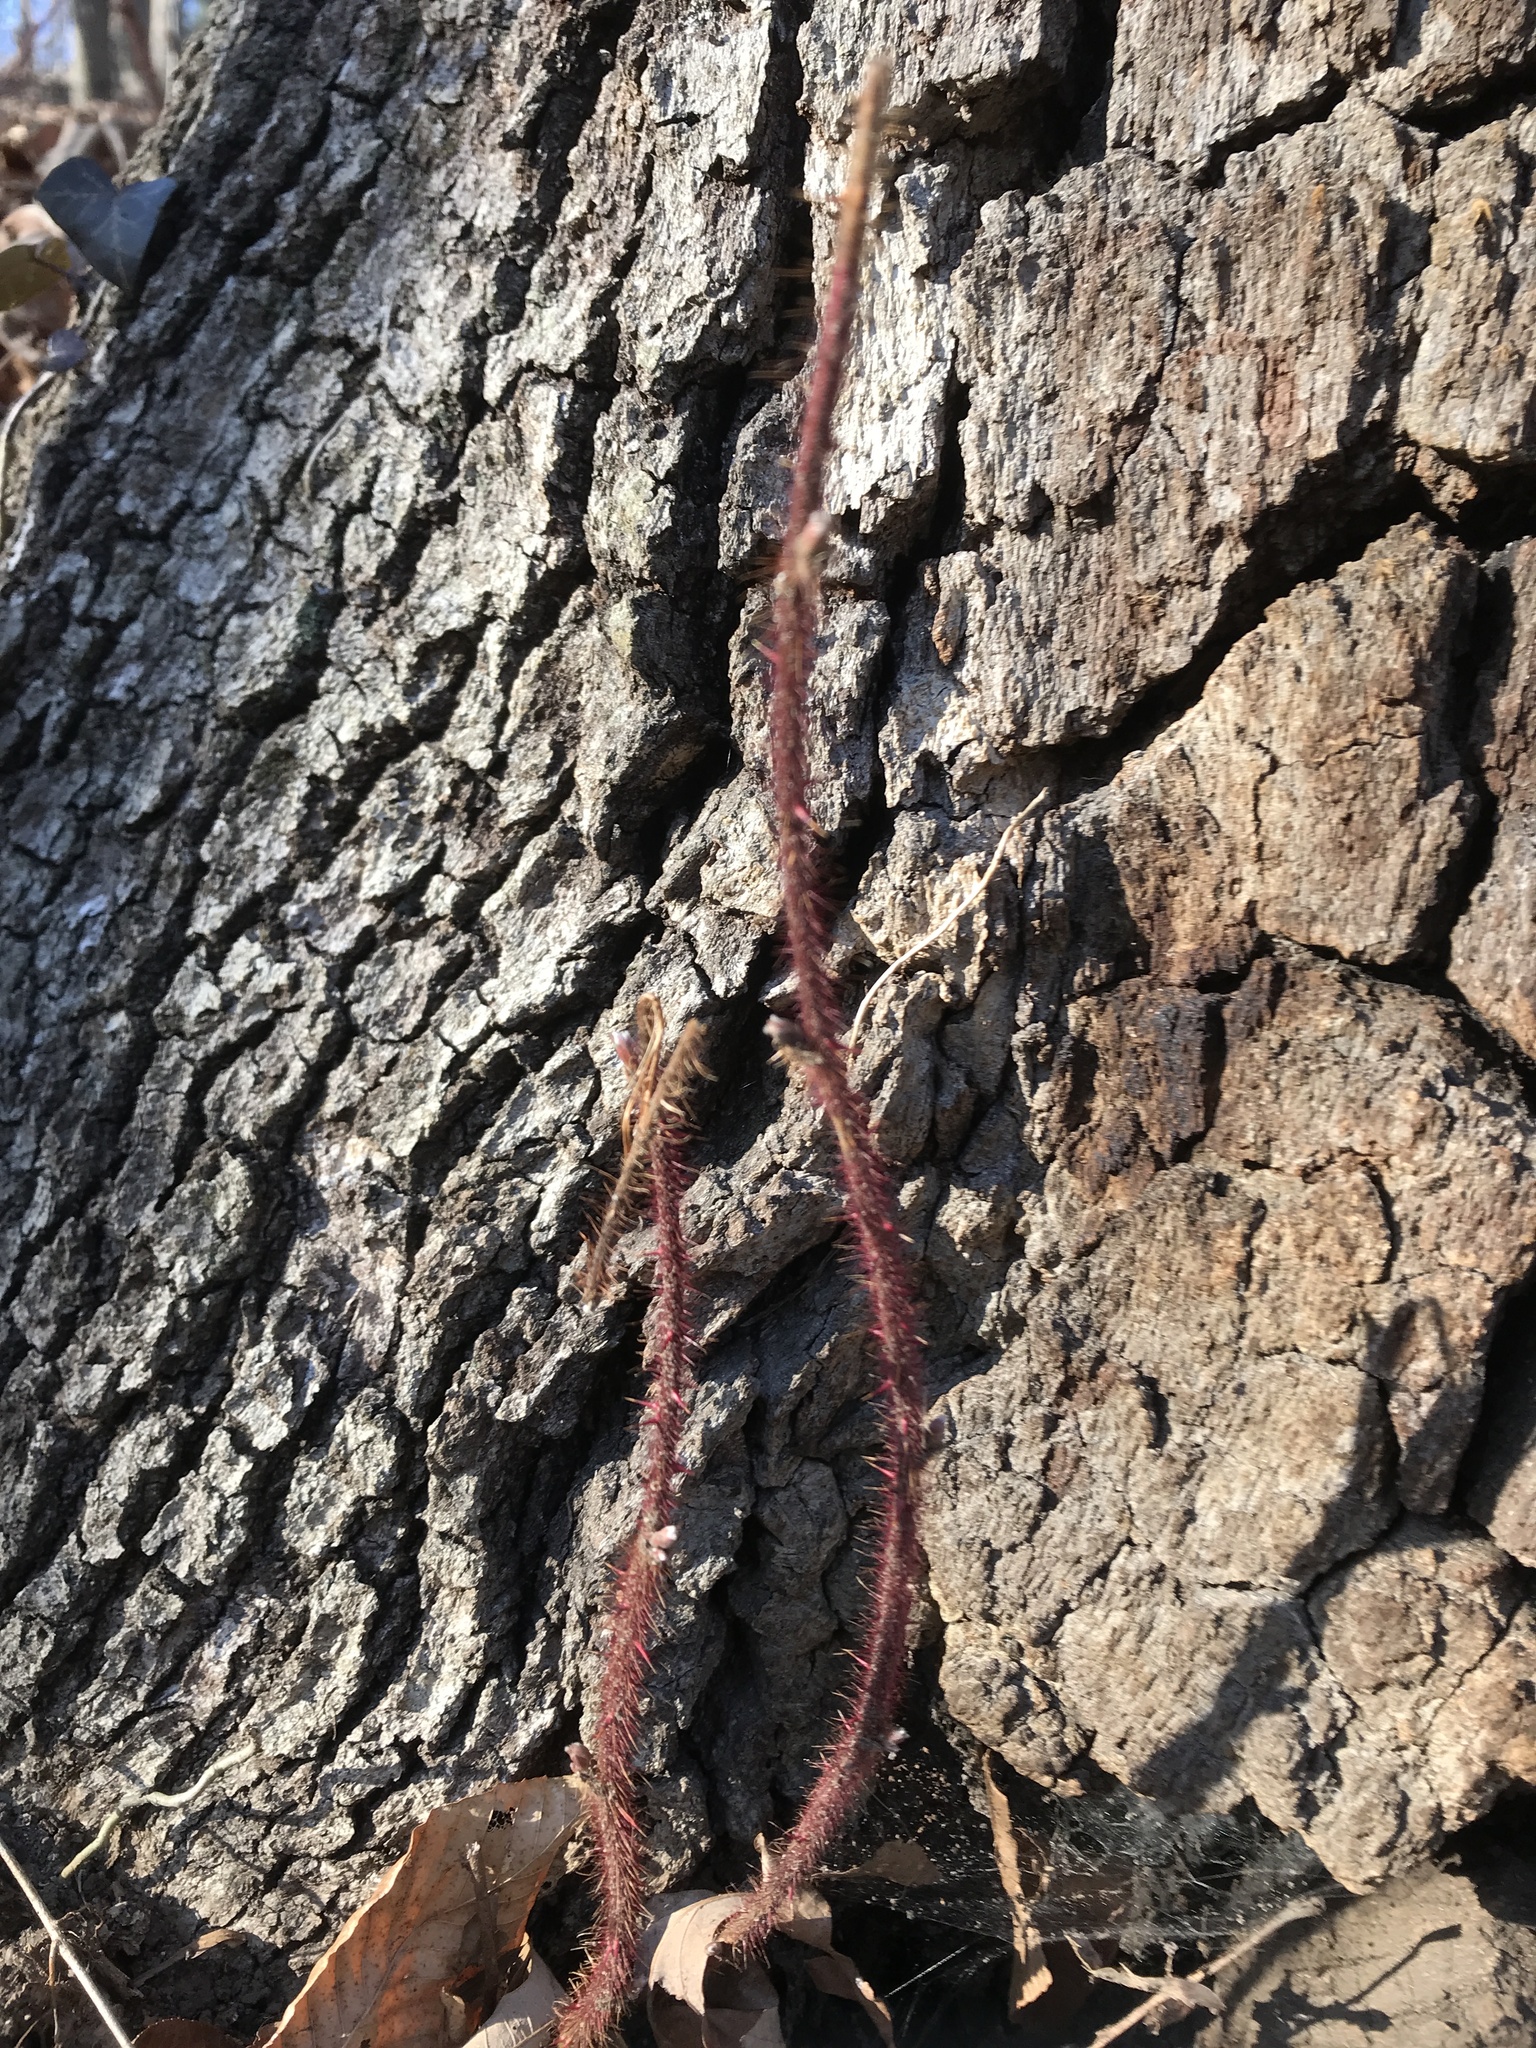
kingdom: Plantae
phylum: Tracheophyta
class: Magnoliopsida
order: Rosales
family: Rosaceae
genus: Rubus
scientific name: Rubus phoenicolasius
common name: Japanese wineberry
